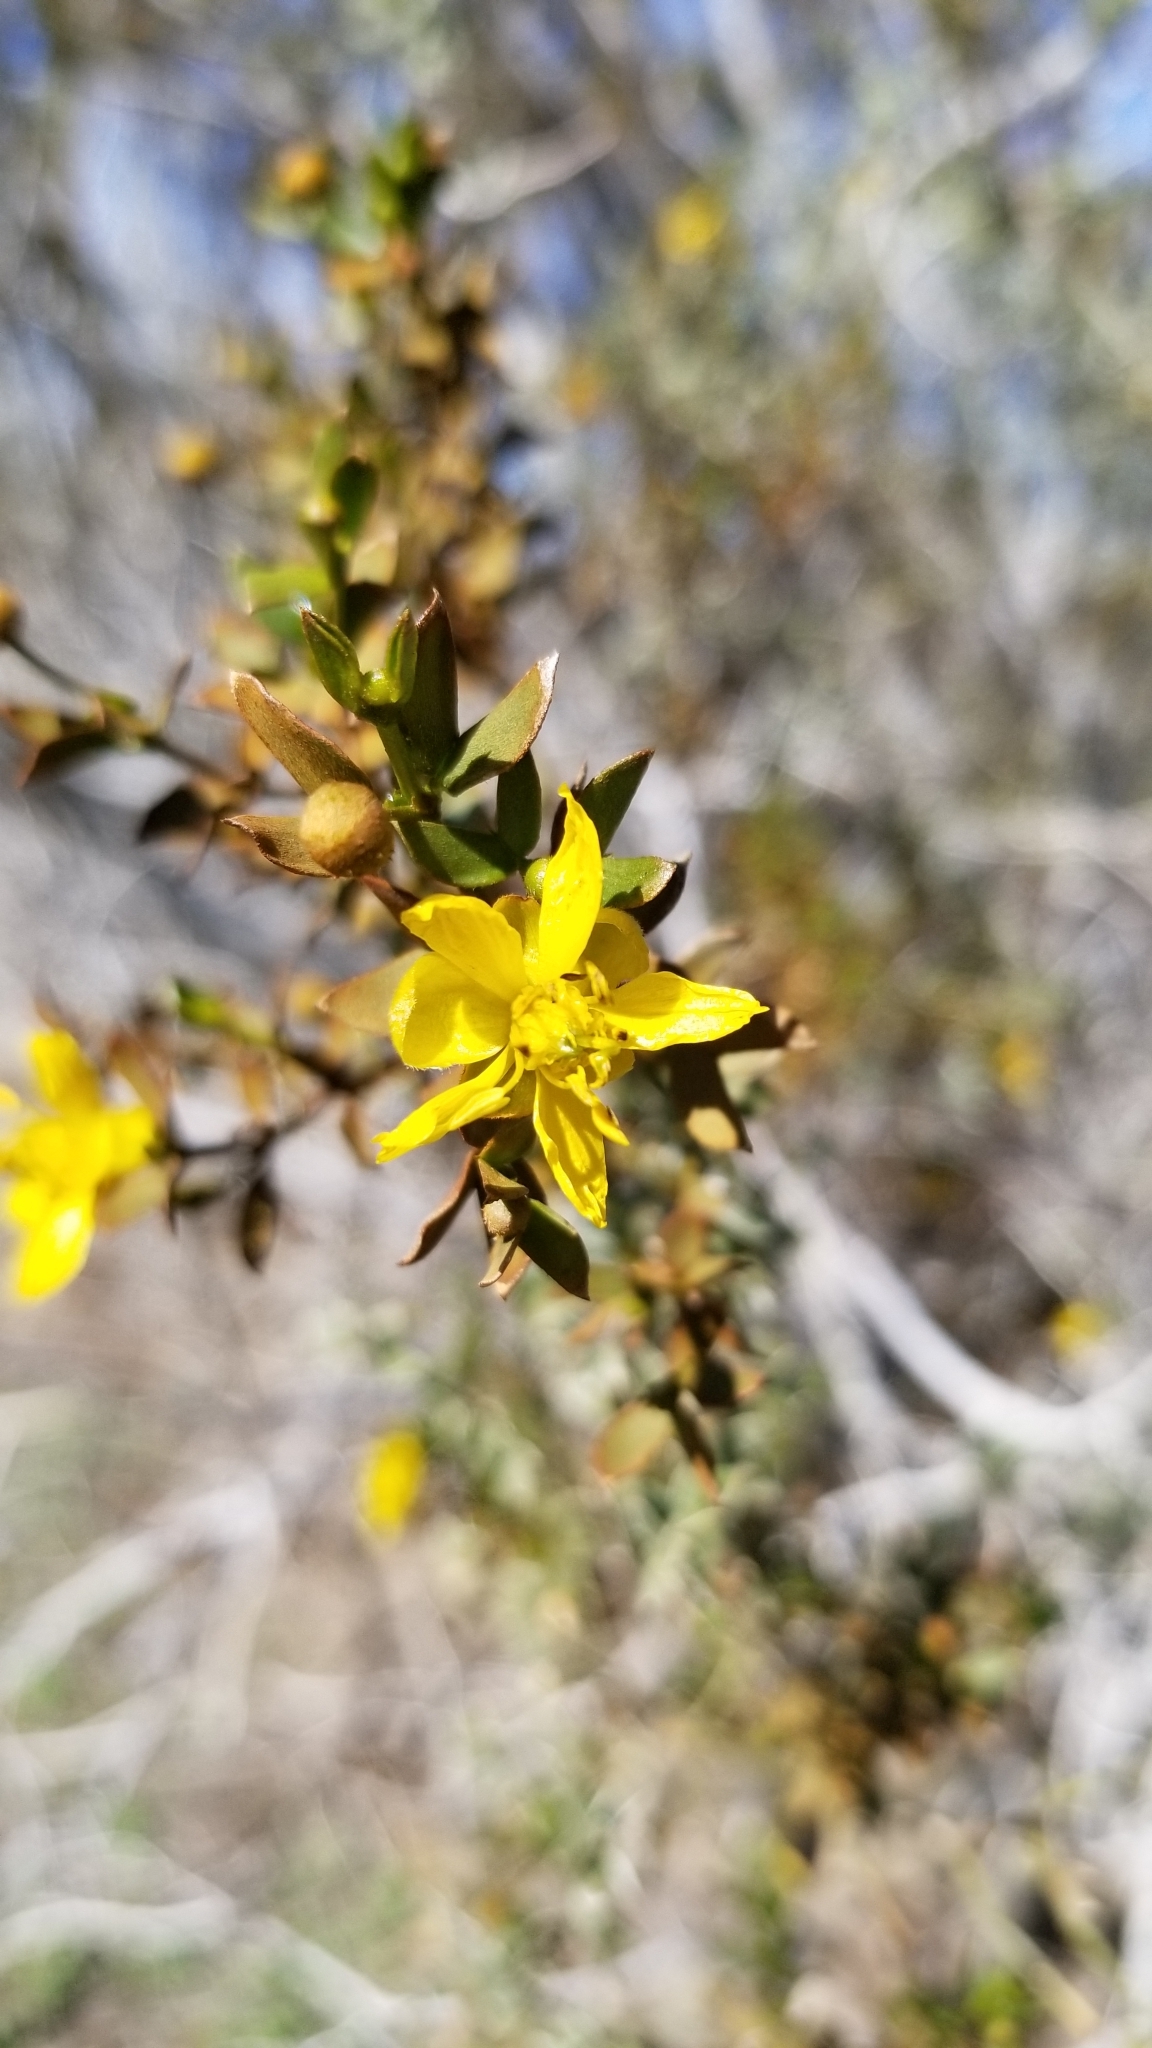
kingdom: Plantae
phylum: Tracheophyta
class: Magnoliopsida
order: Zygophyllales
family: Zygophyllaceae
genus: Larrea
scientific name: Larrea tridentata
